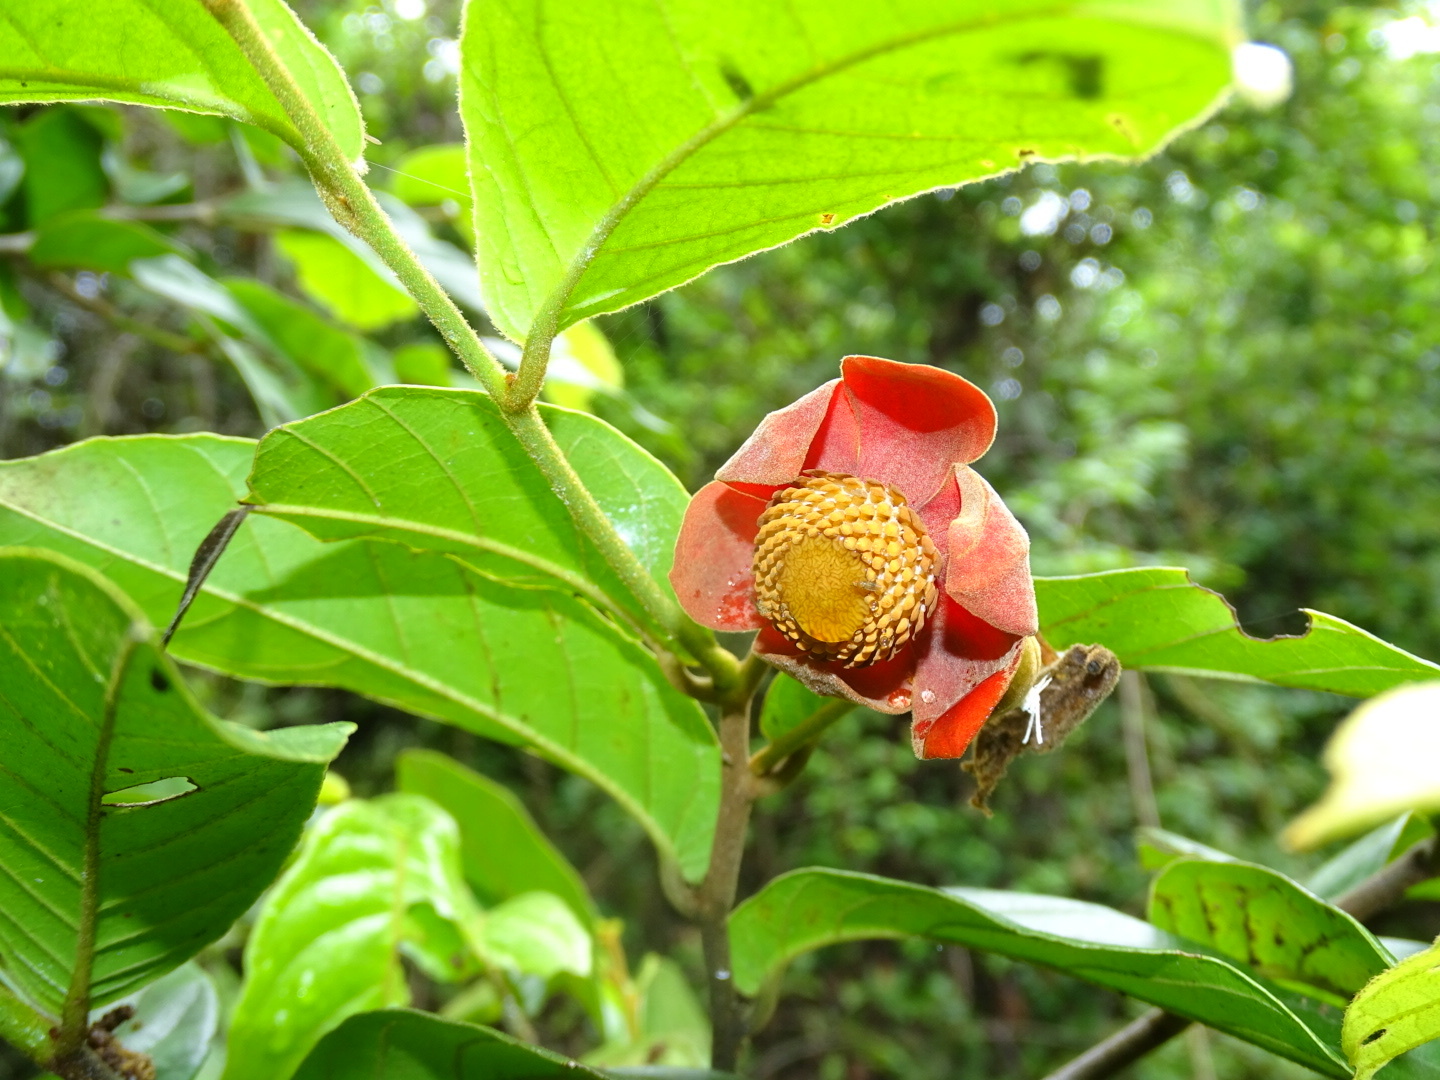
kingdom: Plantae
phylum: Tracheophyta
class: Magnoliopsida
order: Magnoliales
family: Annonaceae
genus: Uvaria
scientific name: Uvaria littoralis
